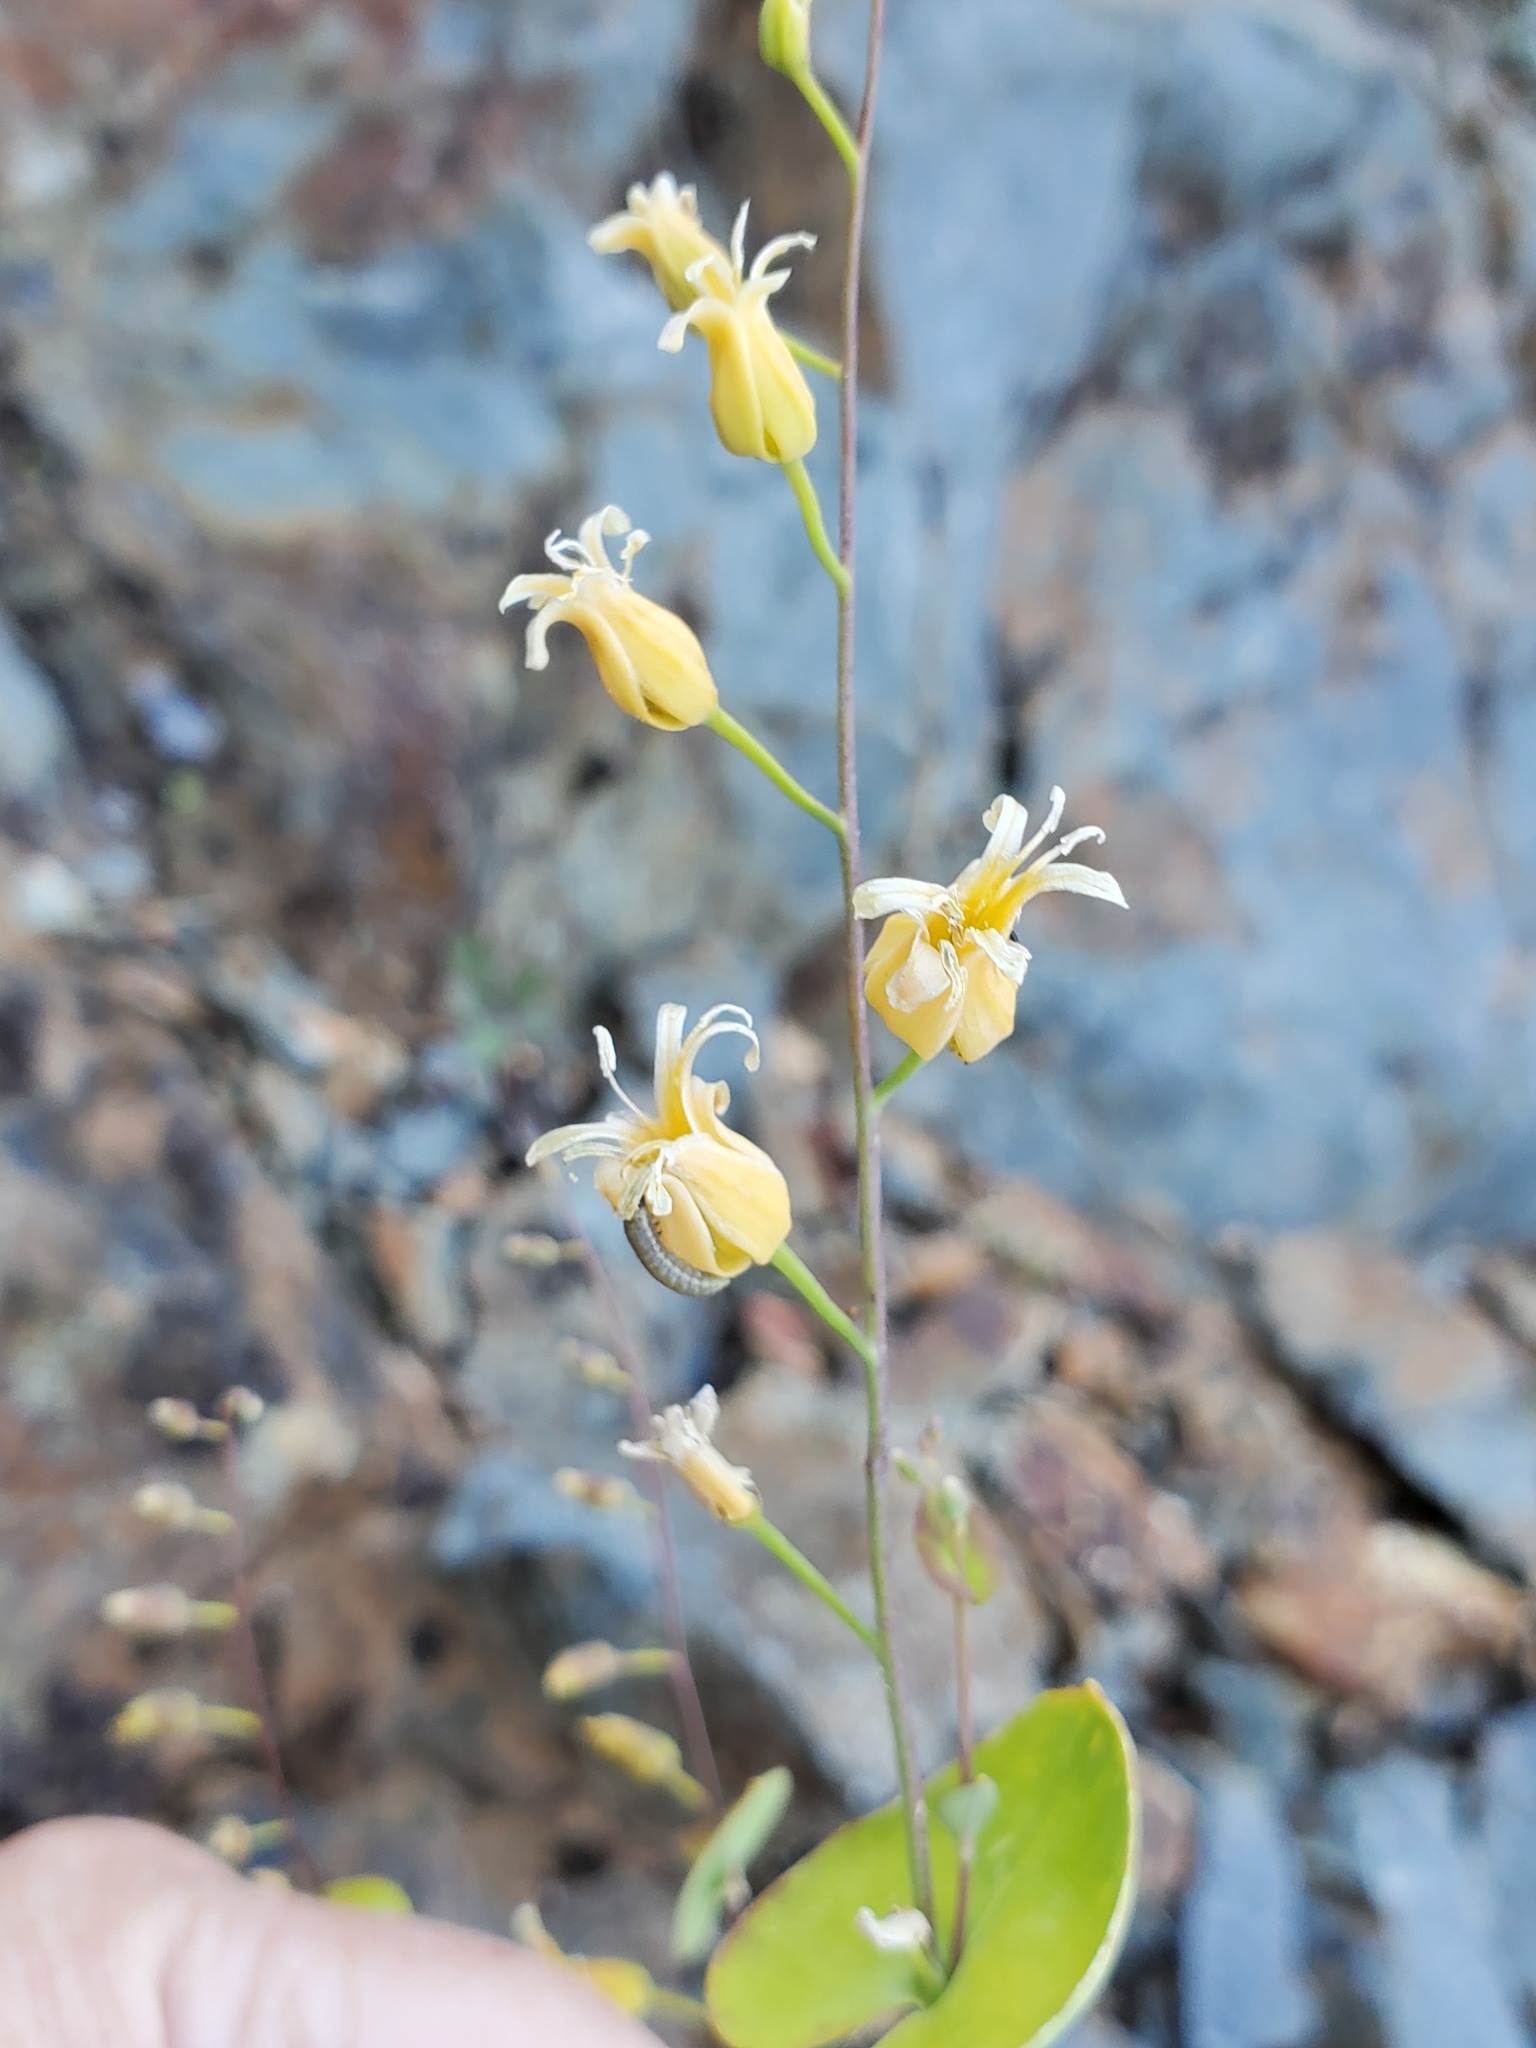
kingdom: Plantae
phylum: Tracheophyta
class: Magnoliopsida
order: Brassicales
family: Brassicaceae
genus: Streptanthus
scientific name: Streptanthus tortuosus
